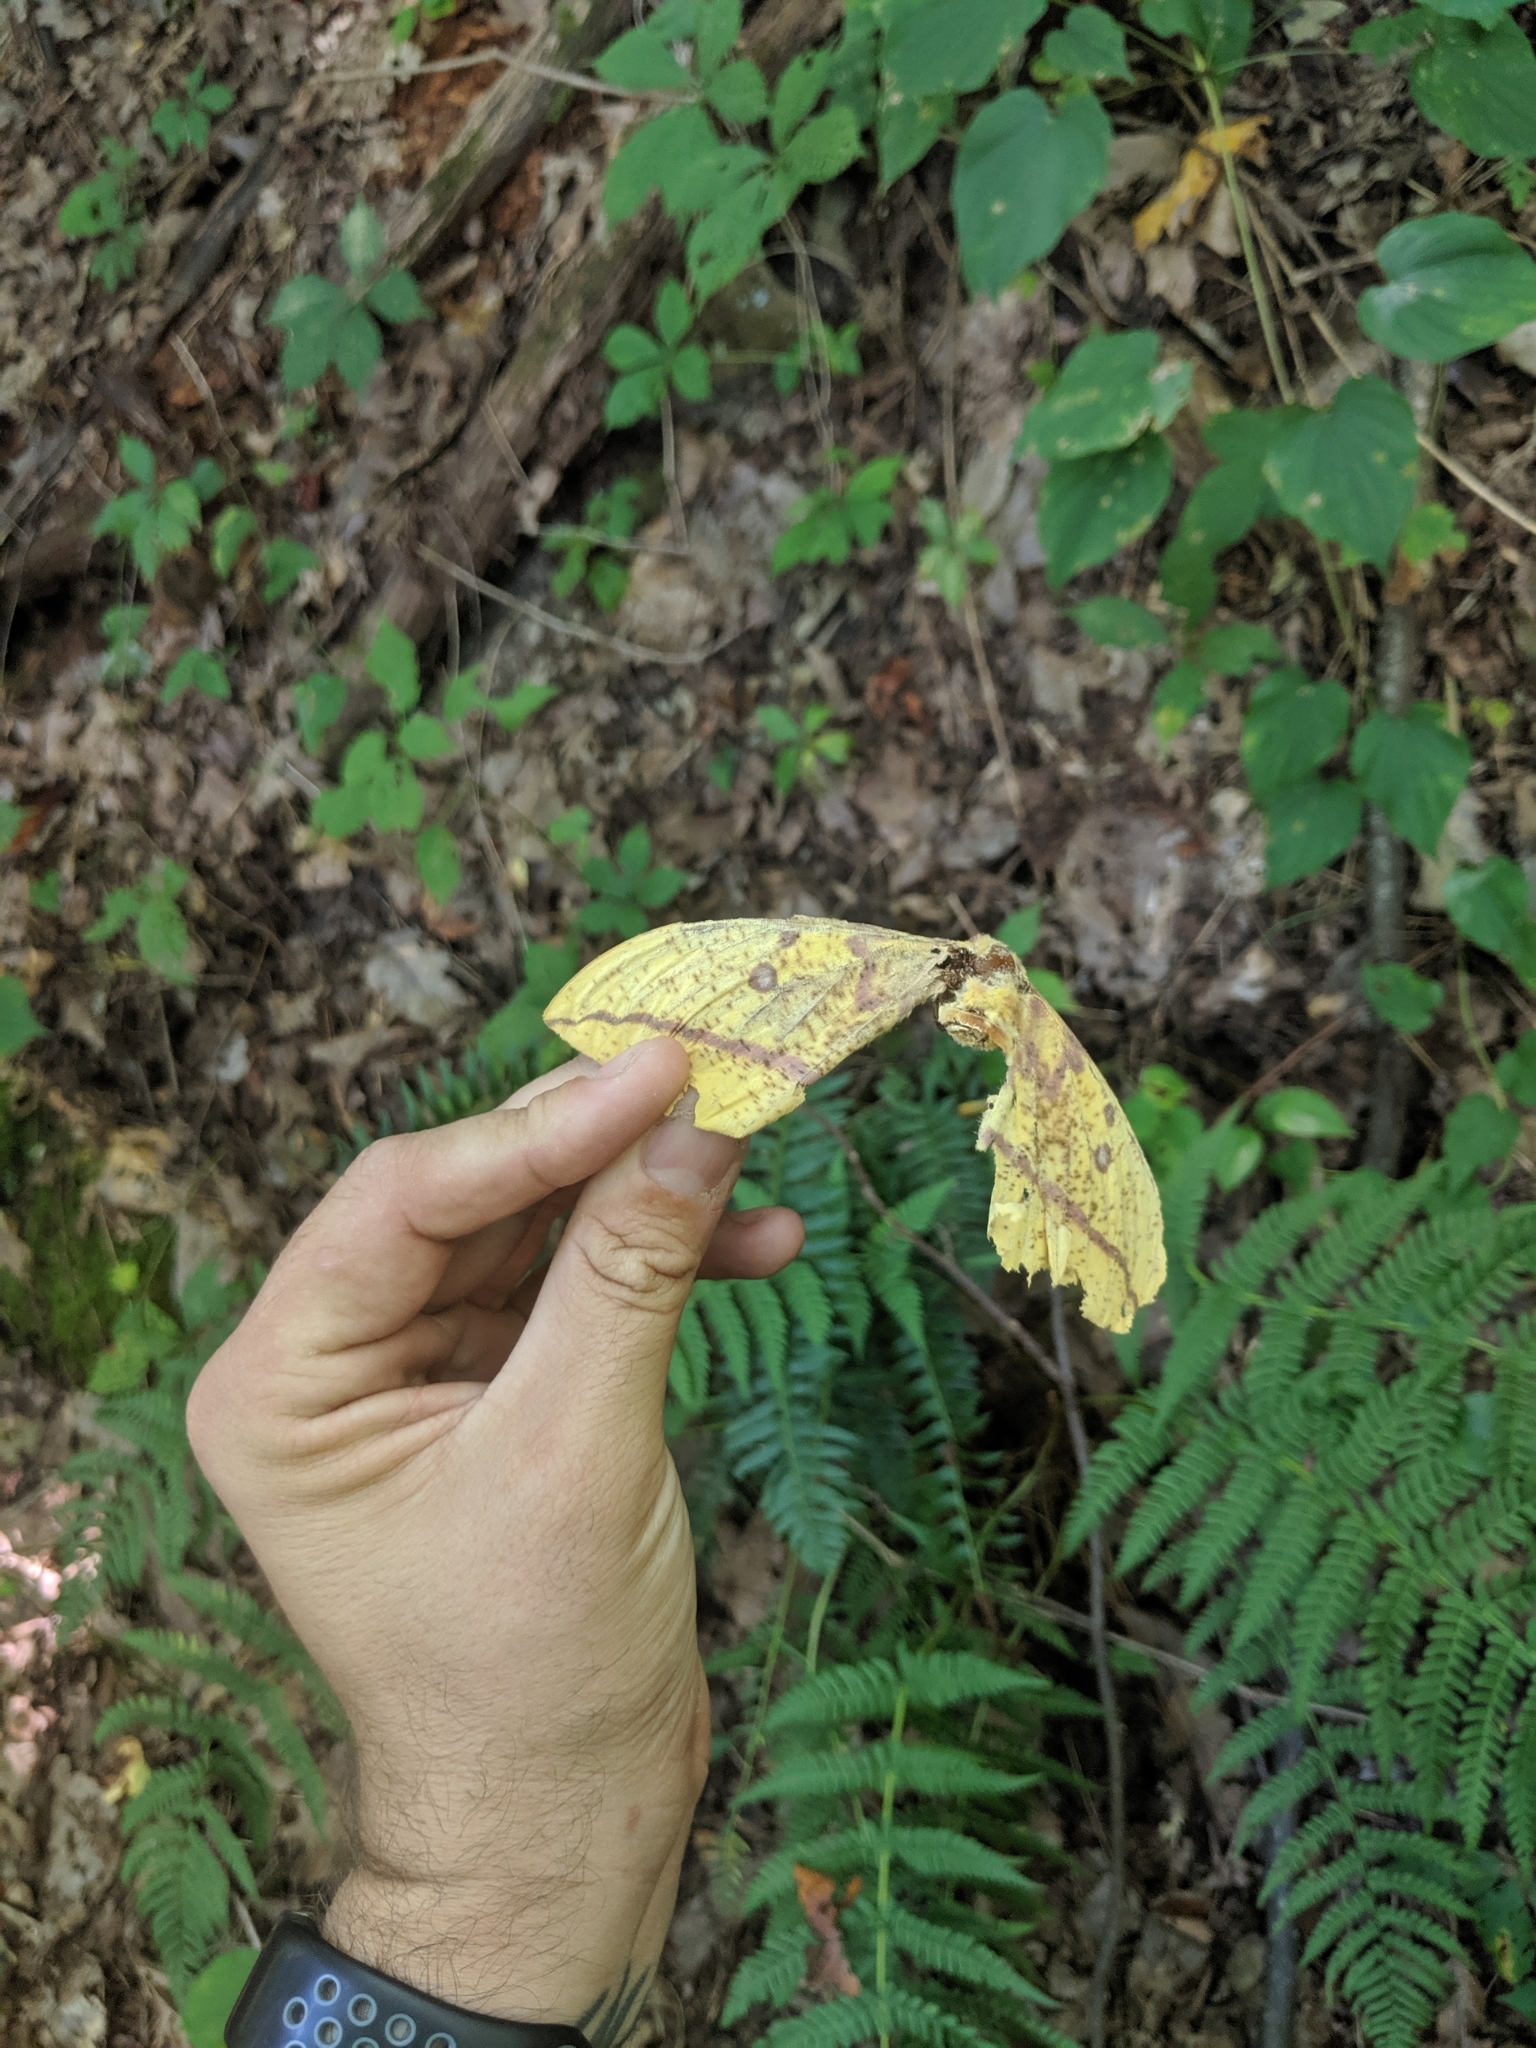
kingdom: Animalia
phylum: Arthropoda
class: Insecta
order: Lepidoptera
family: Saturniidae
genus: Eacles
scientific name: Eacles imperialis
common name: Imperial moth
